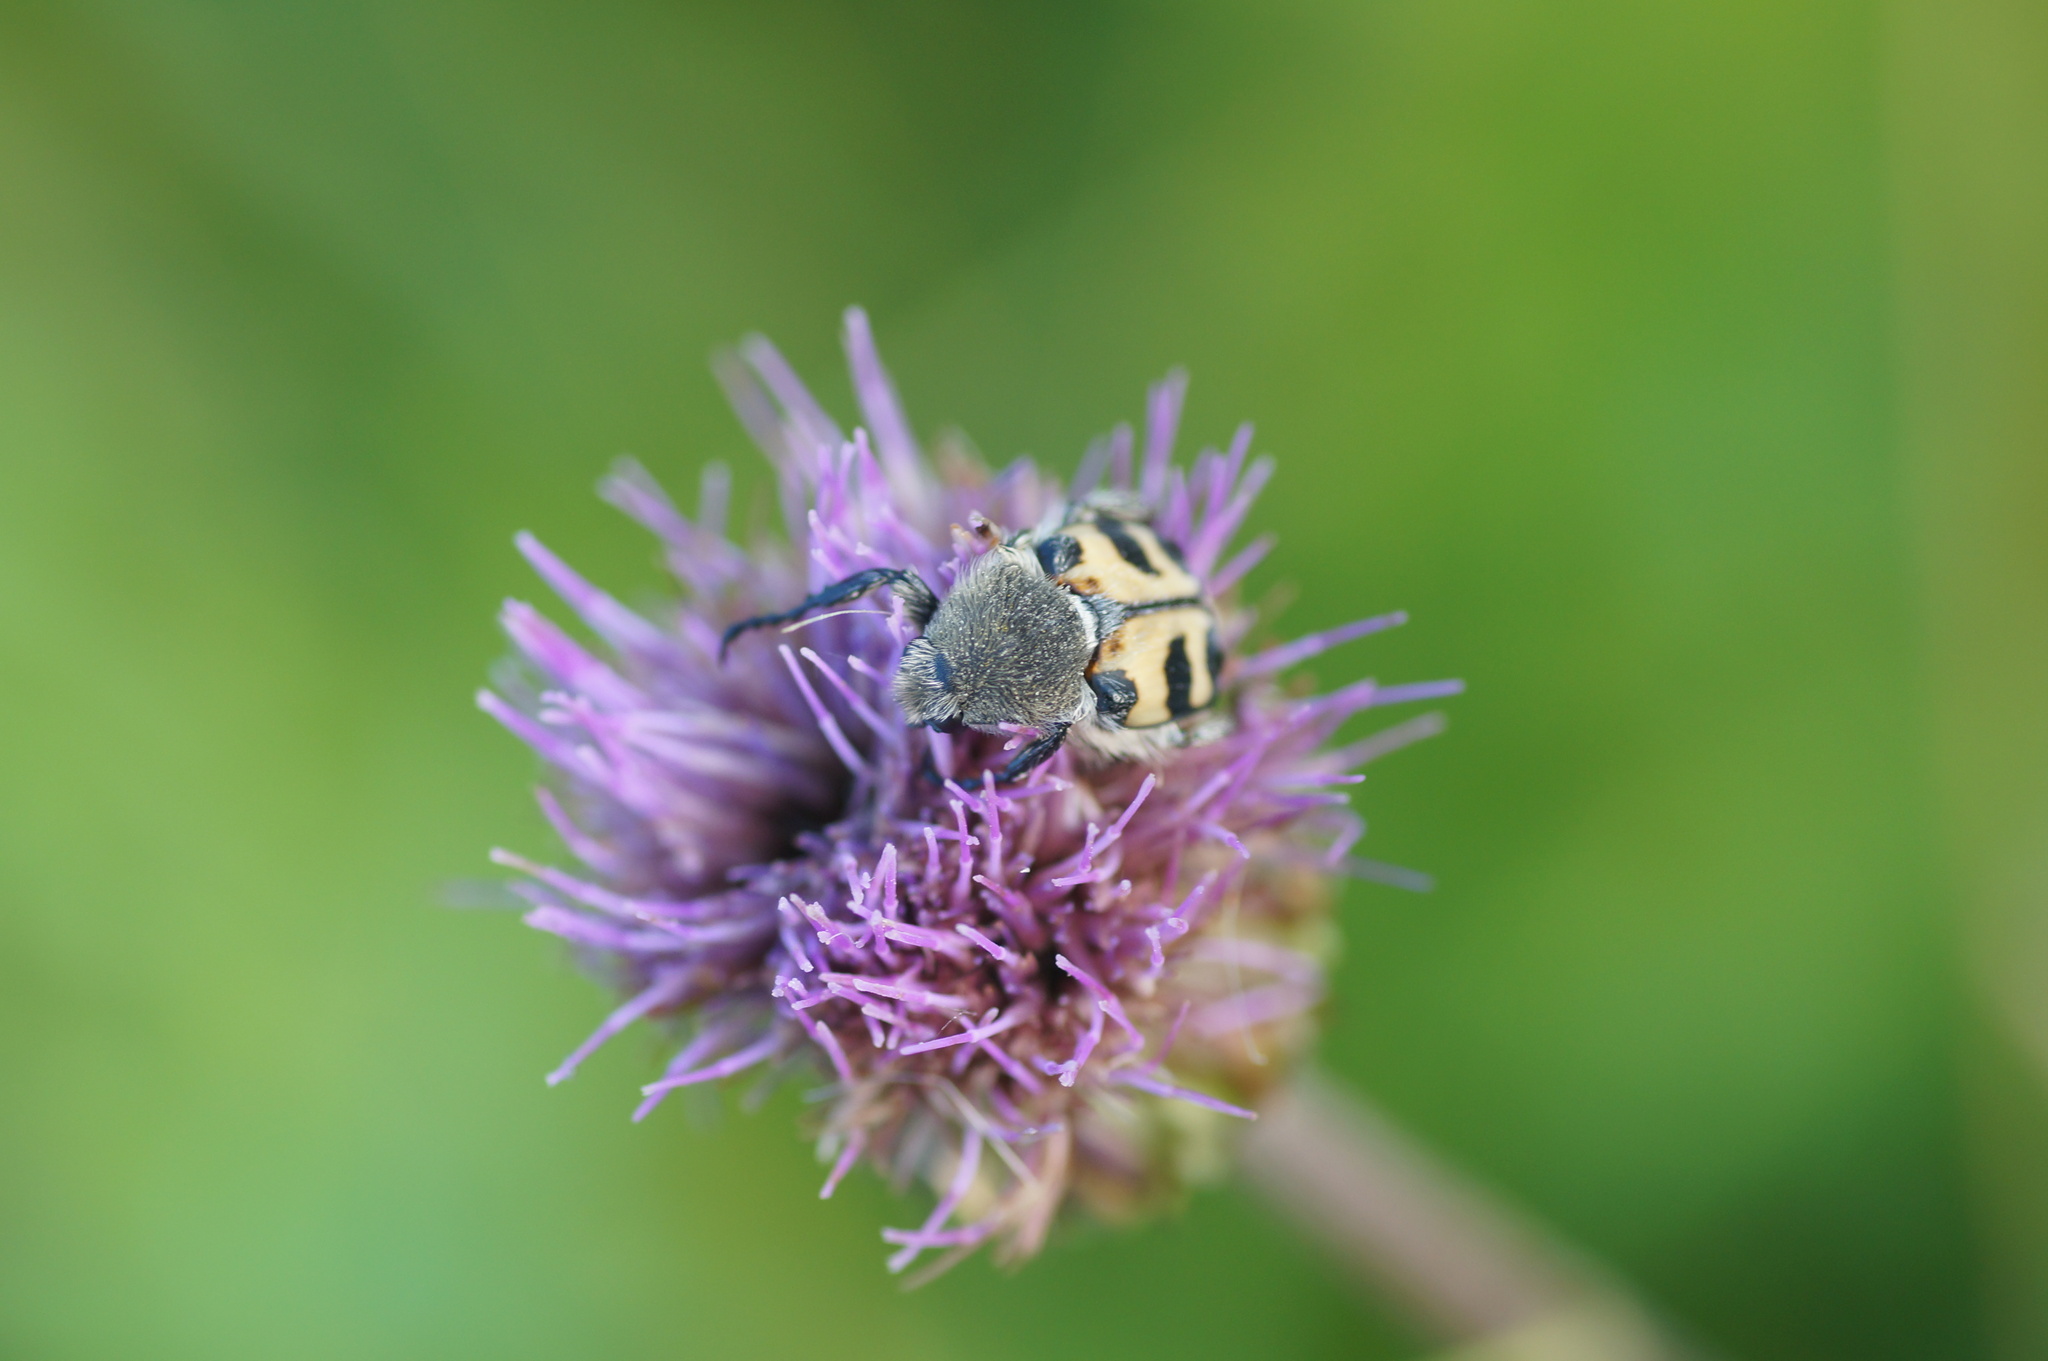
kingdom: Animalia
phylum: Arthropoda
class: Insecta
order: Coleoptera
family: Scarabaeidae
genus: Trichius
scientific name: Trichius fasciatus
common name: Bee beetle
